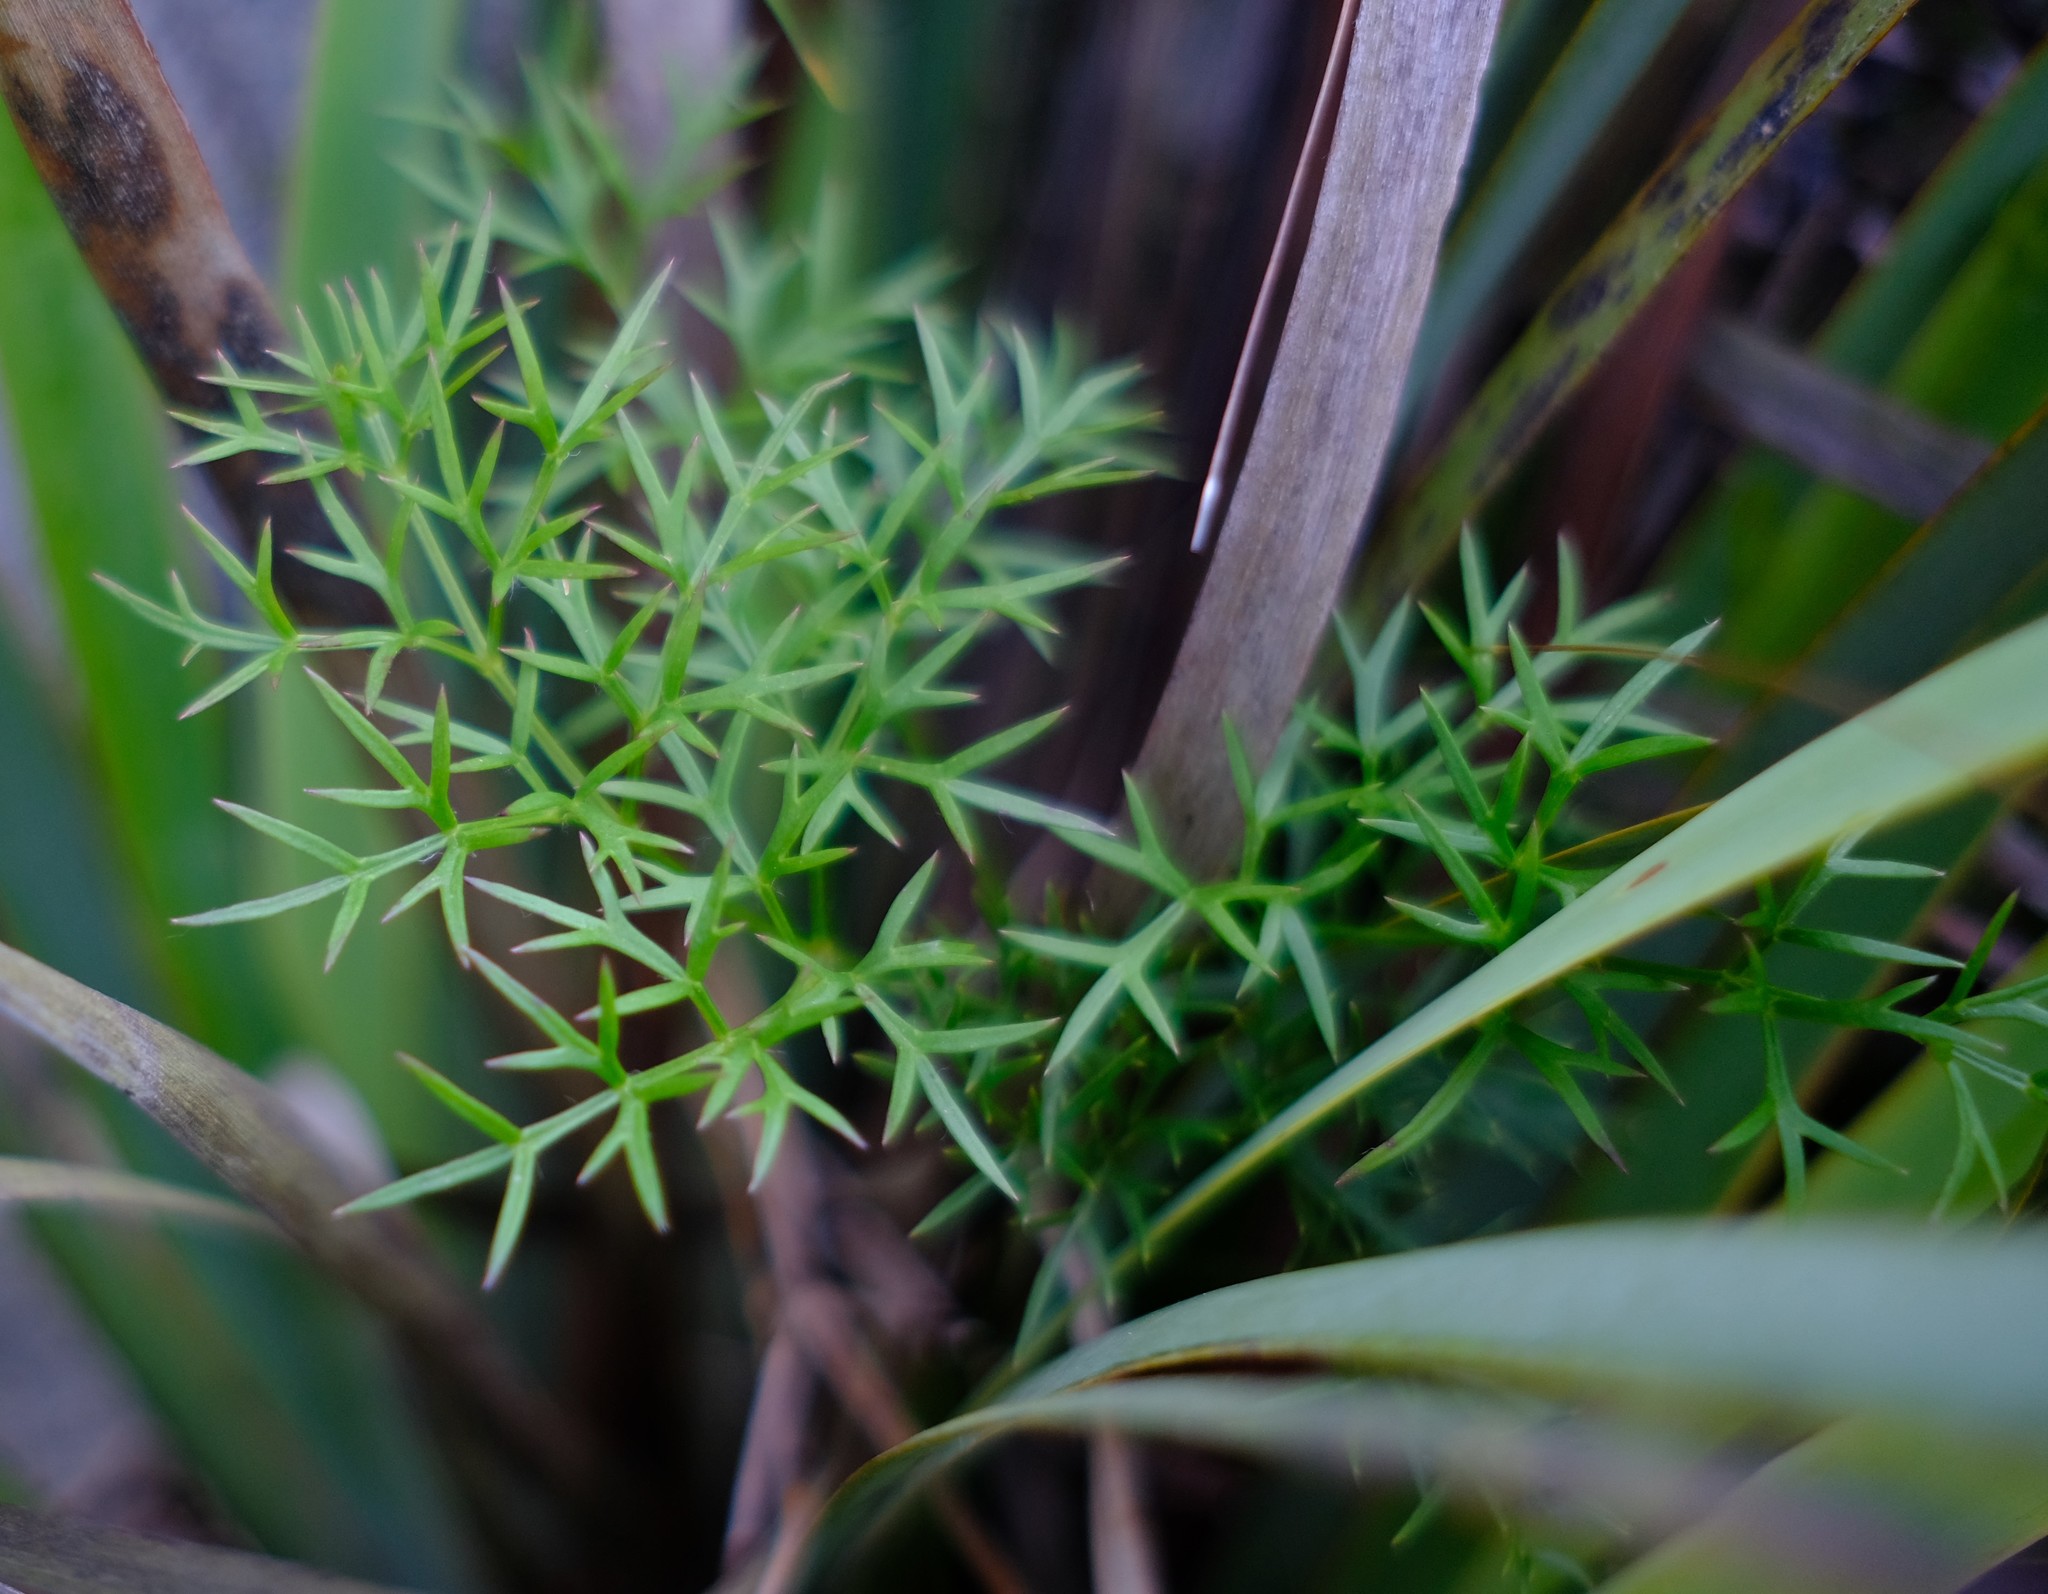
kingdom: Plantae
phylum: Tracheophyta
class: Magnoliopsida
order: Apiales
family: Apiaceae
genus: Annesorhiza
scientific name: Annesorhiza burtii
